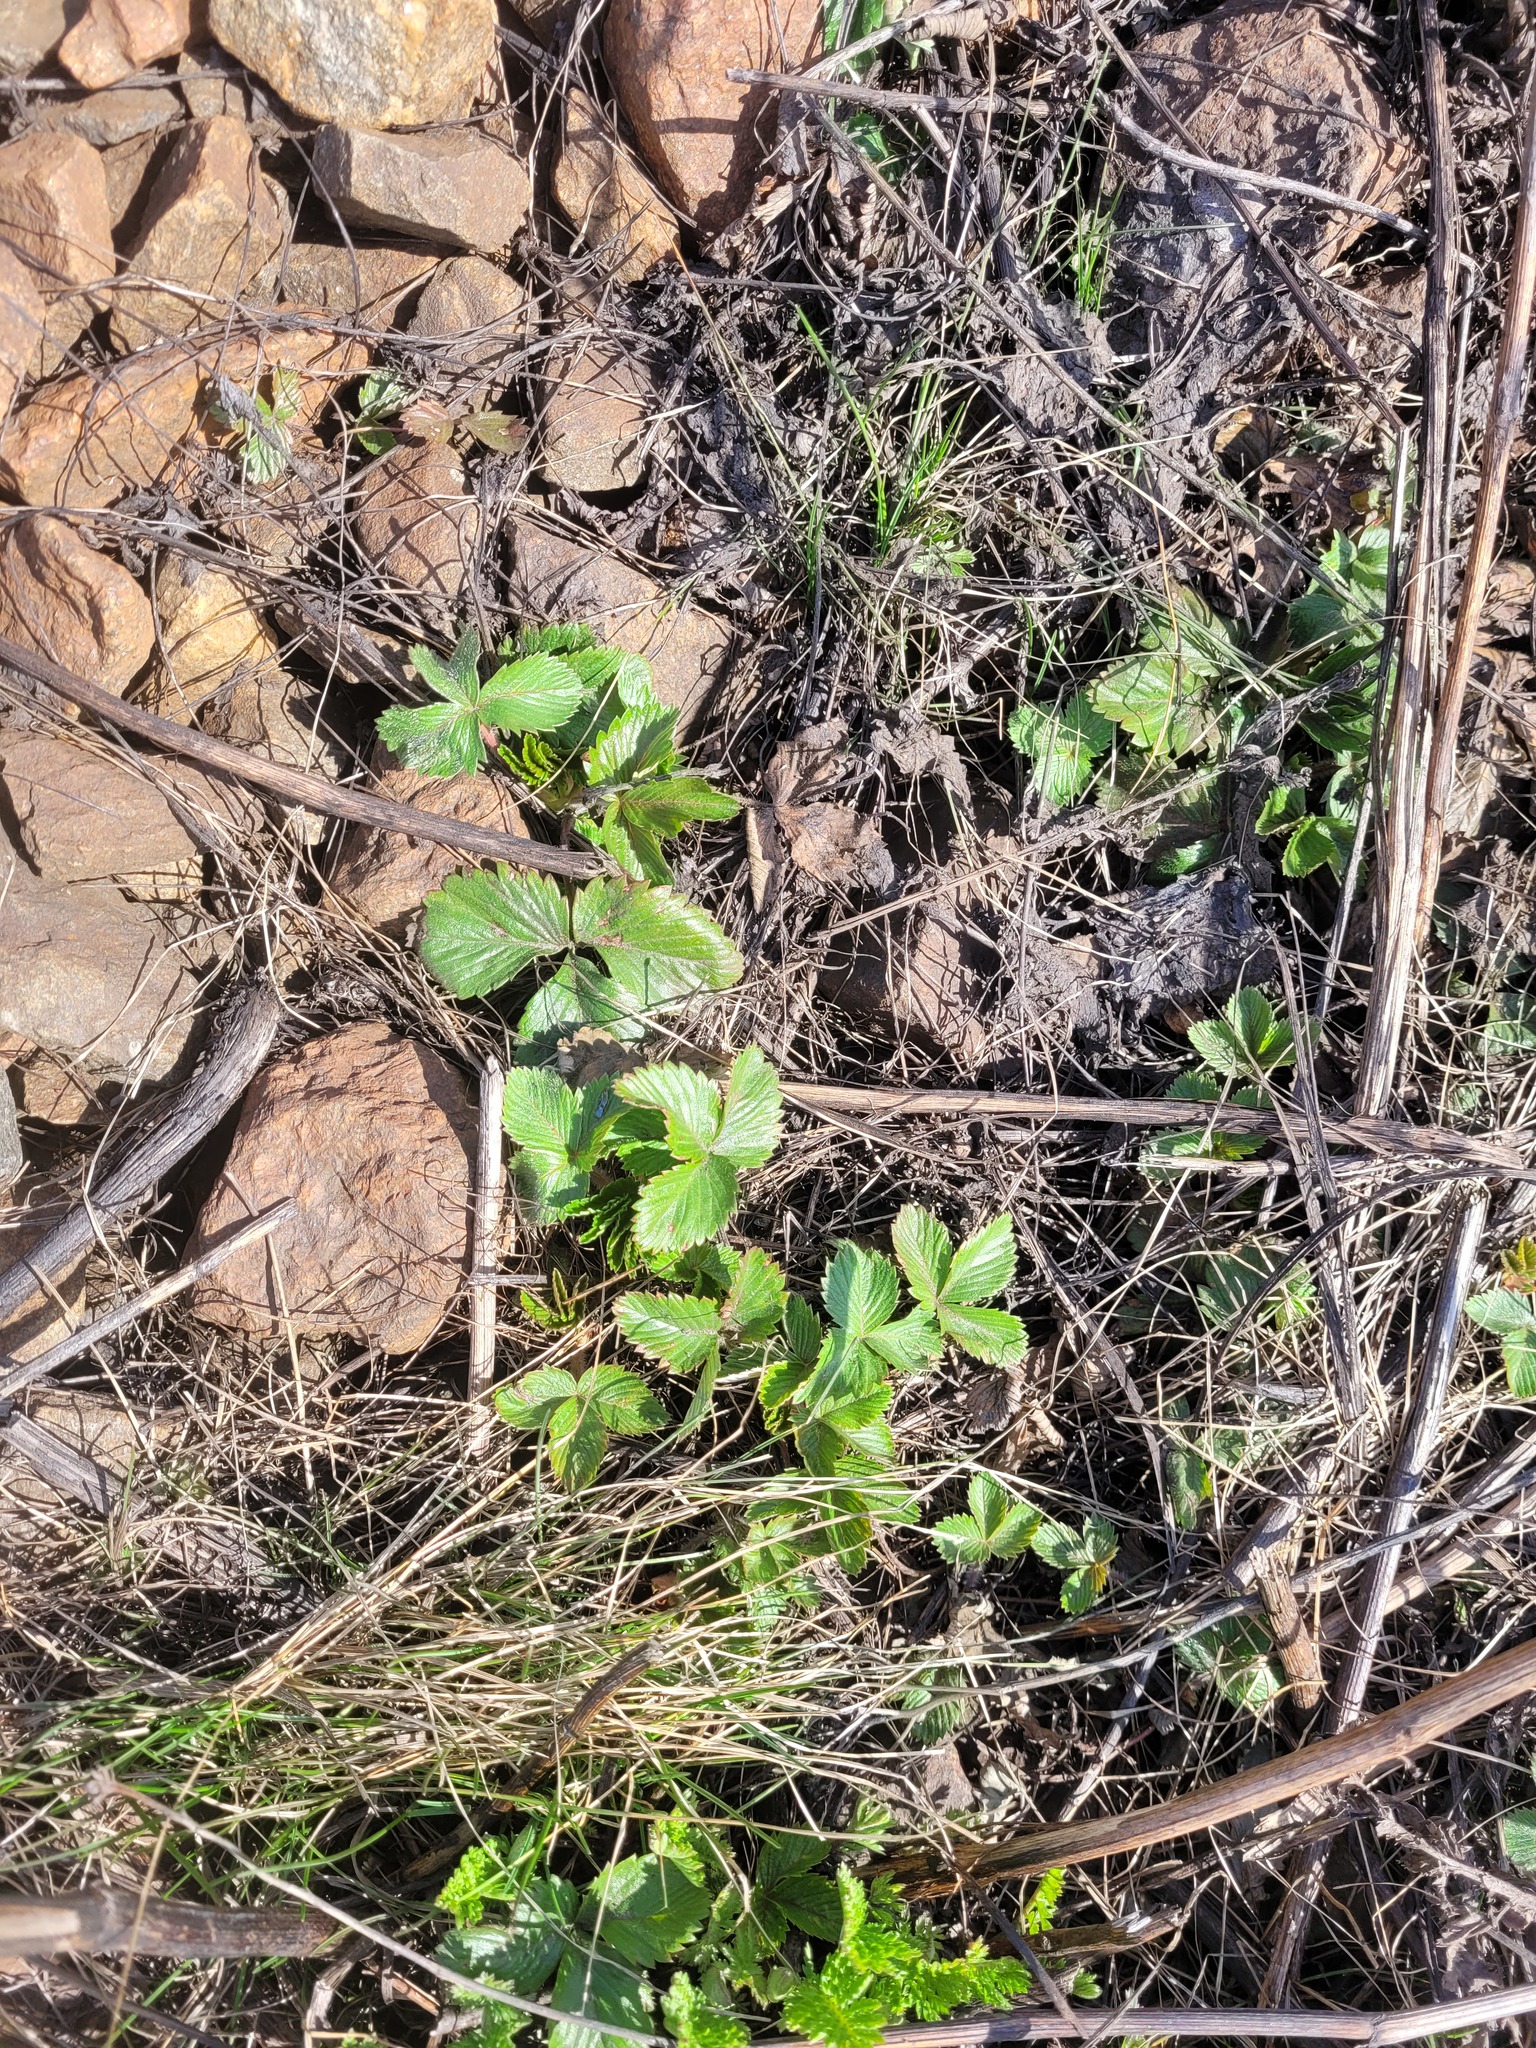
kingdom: Plantae
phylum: Tracheophyta
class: Magnoliopsida
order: Rosales
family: Rosaceae
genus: Fragaria
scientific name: Fragaria vesca
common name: Wild strawberry
